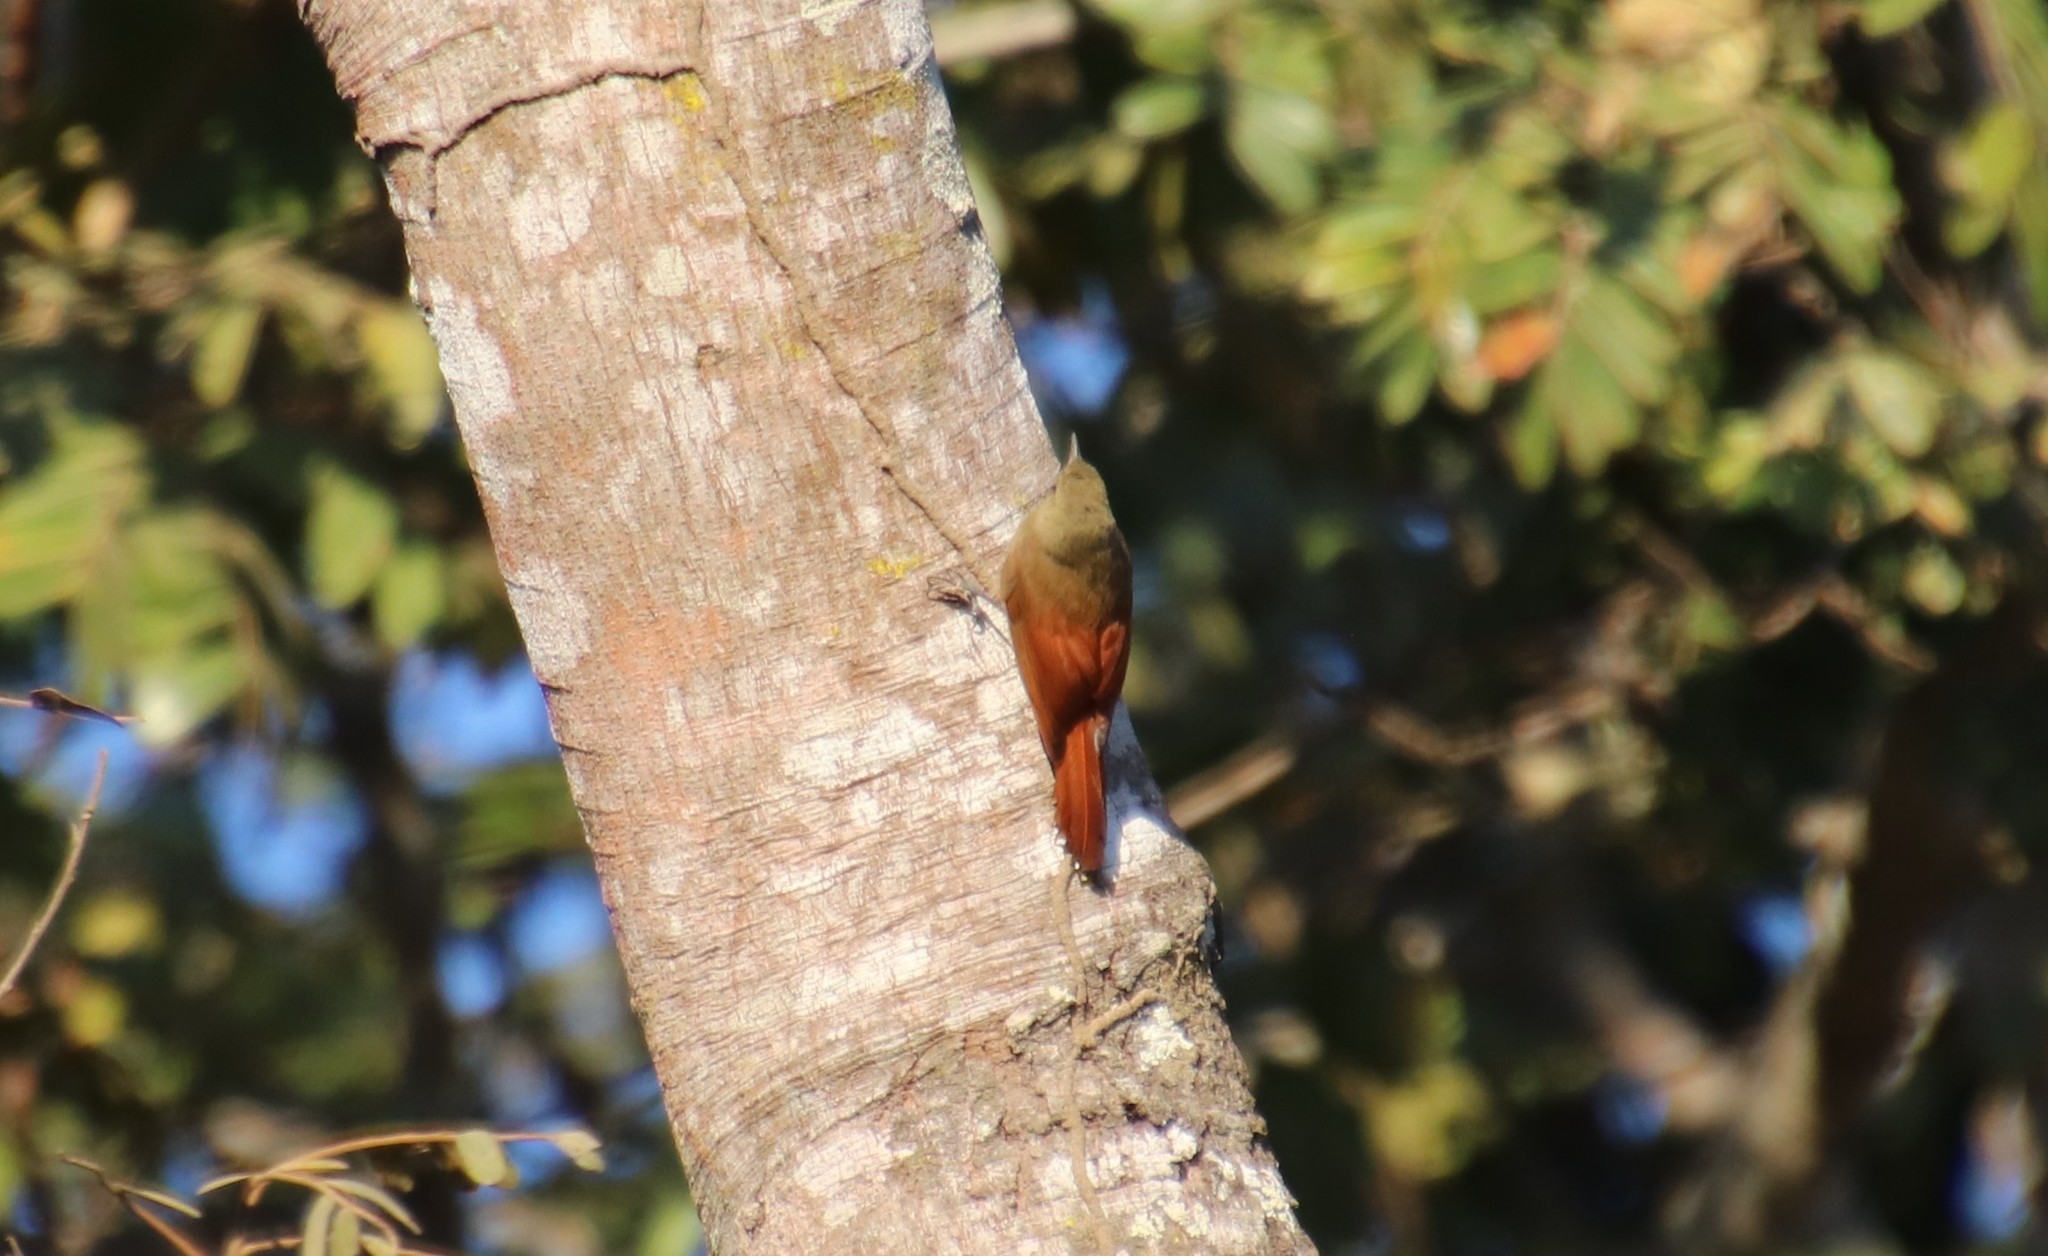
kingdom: Animalia
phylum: Chordata
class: Aves
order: Passeriformes
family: Furnariidae
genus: Sittasomus
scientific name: Sittasomus griseicapillus
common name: Olivaceous woodcreeper
